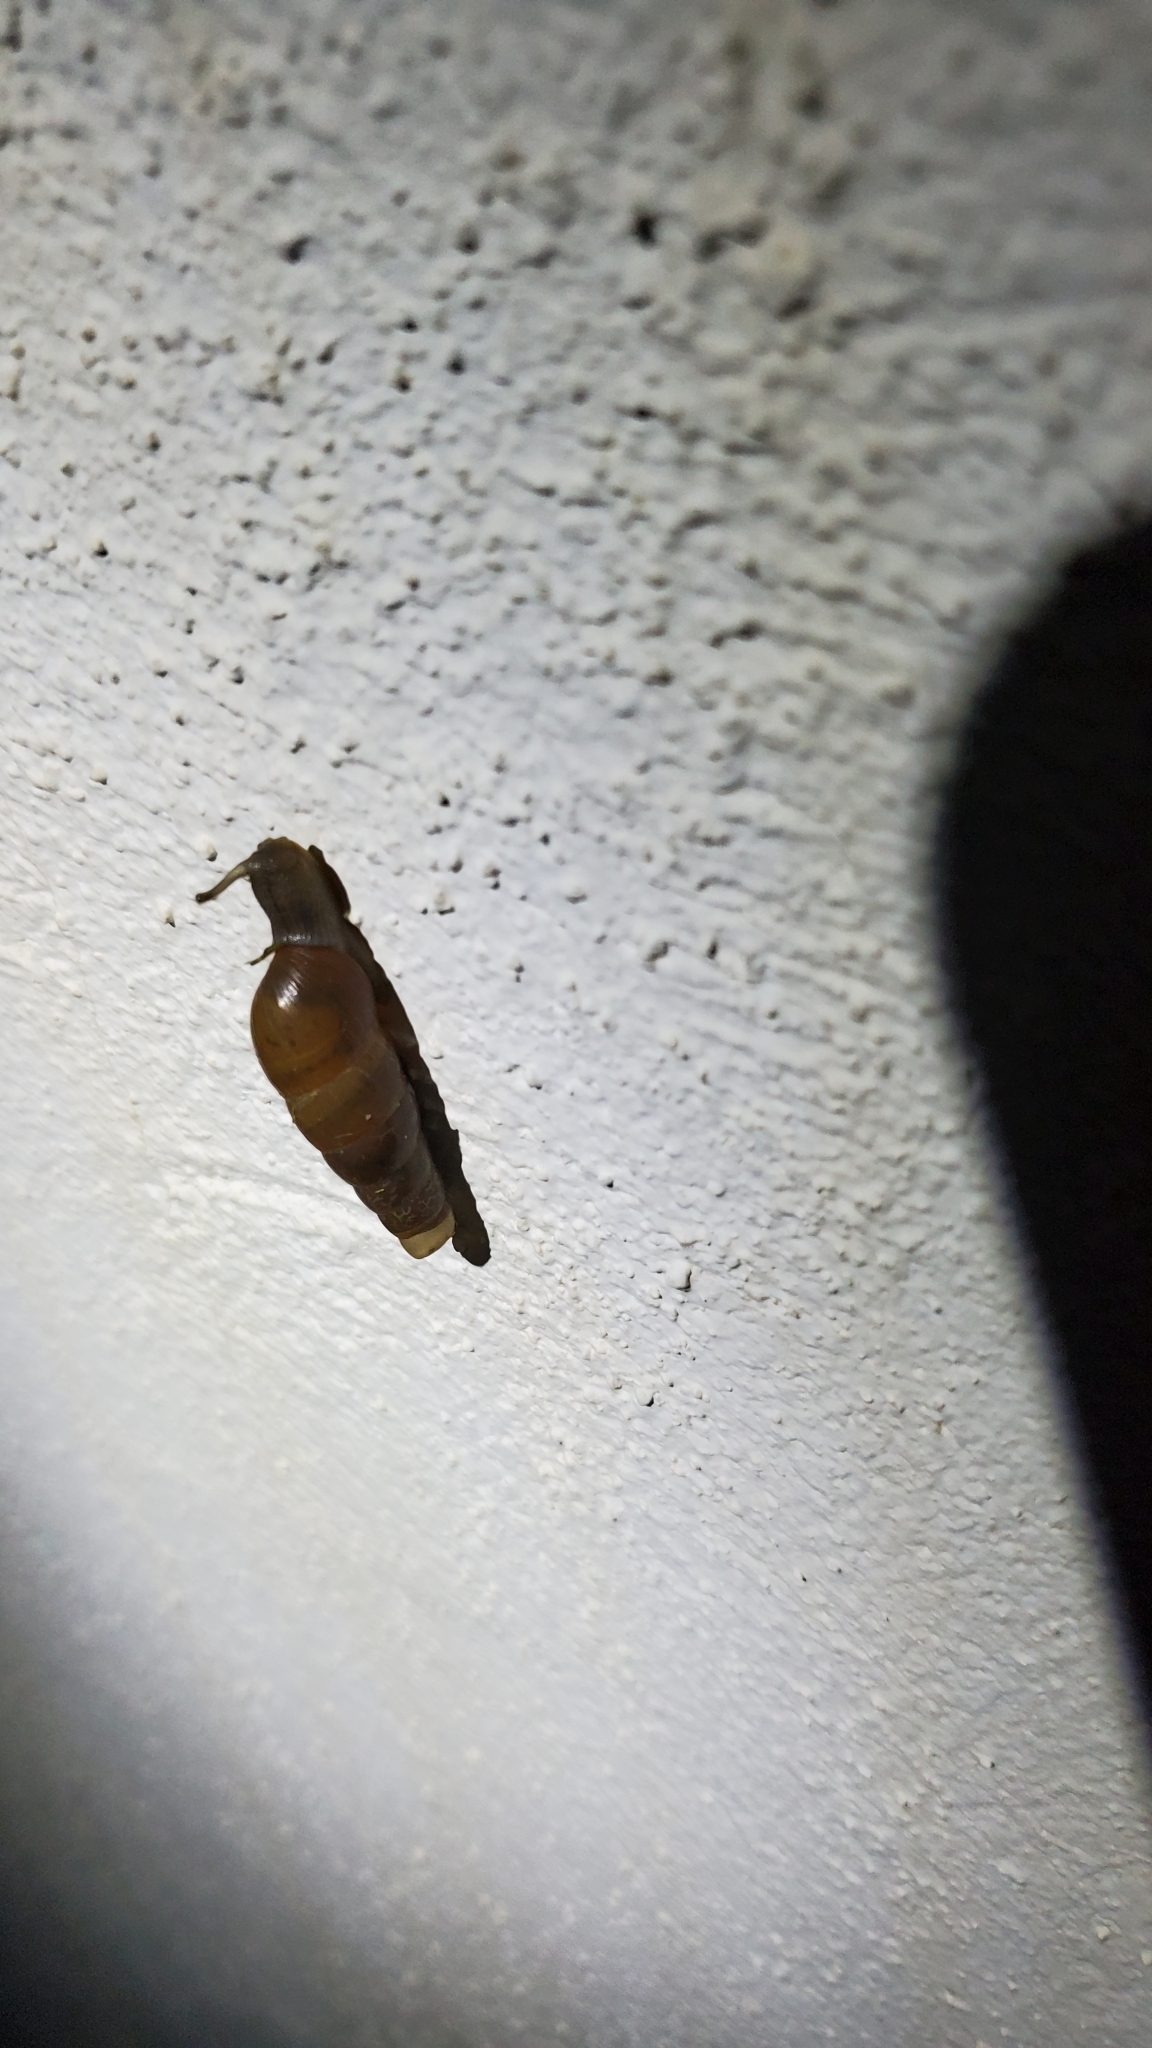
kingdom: Animalia
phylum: Mollusca
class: Gastropoda
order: Stylommatophora
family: Achatinidae
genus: Rumina
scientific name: Rumina decollata
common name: Decollate snail
